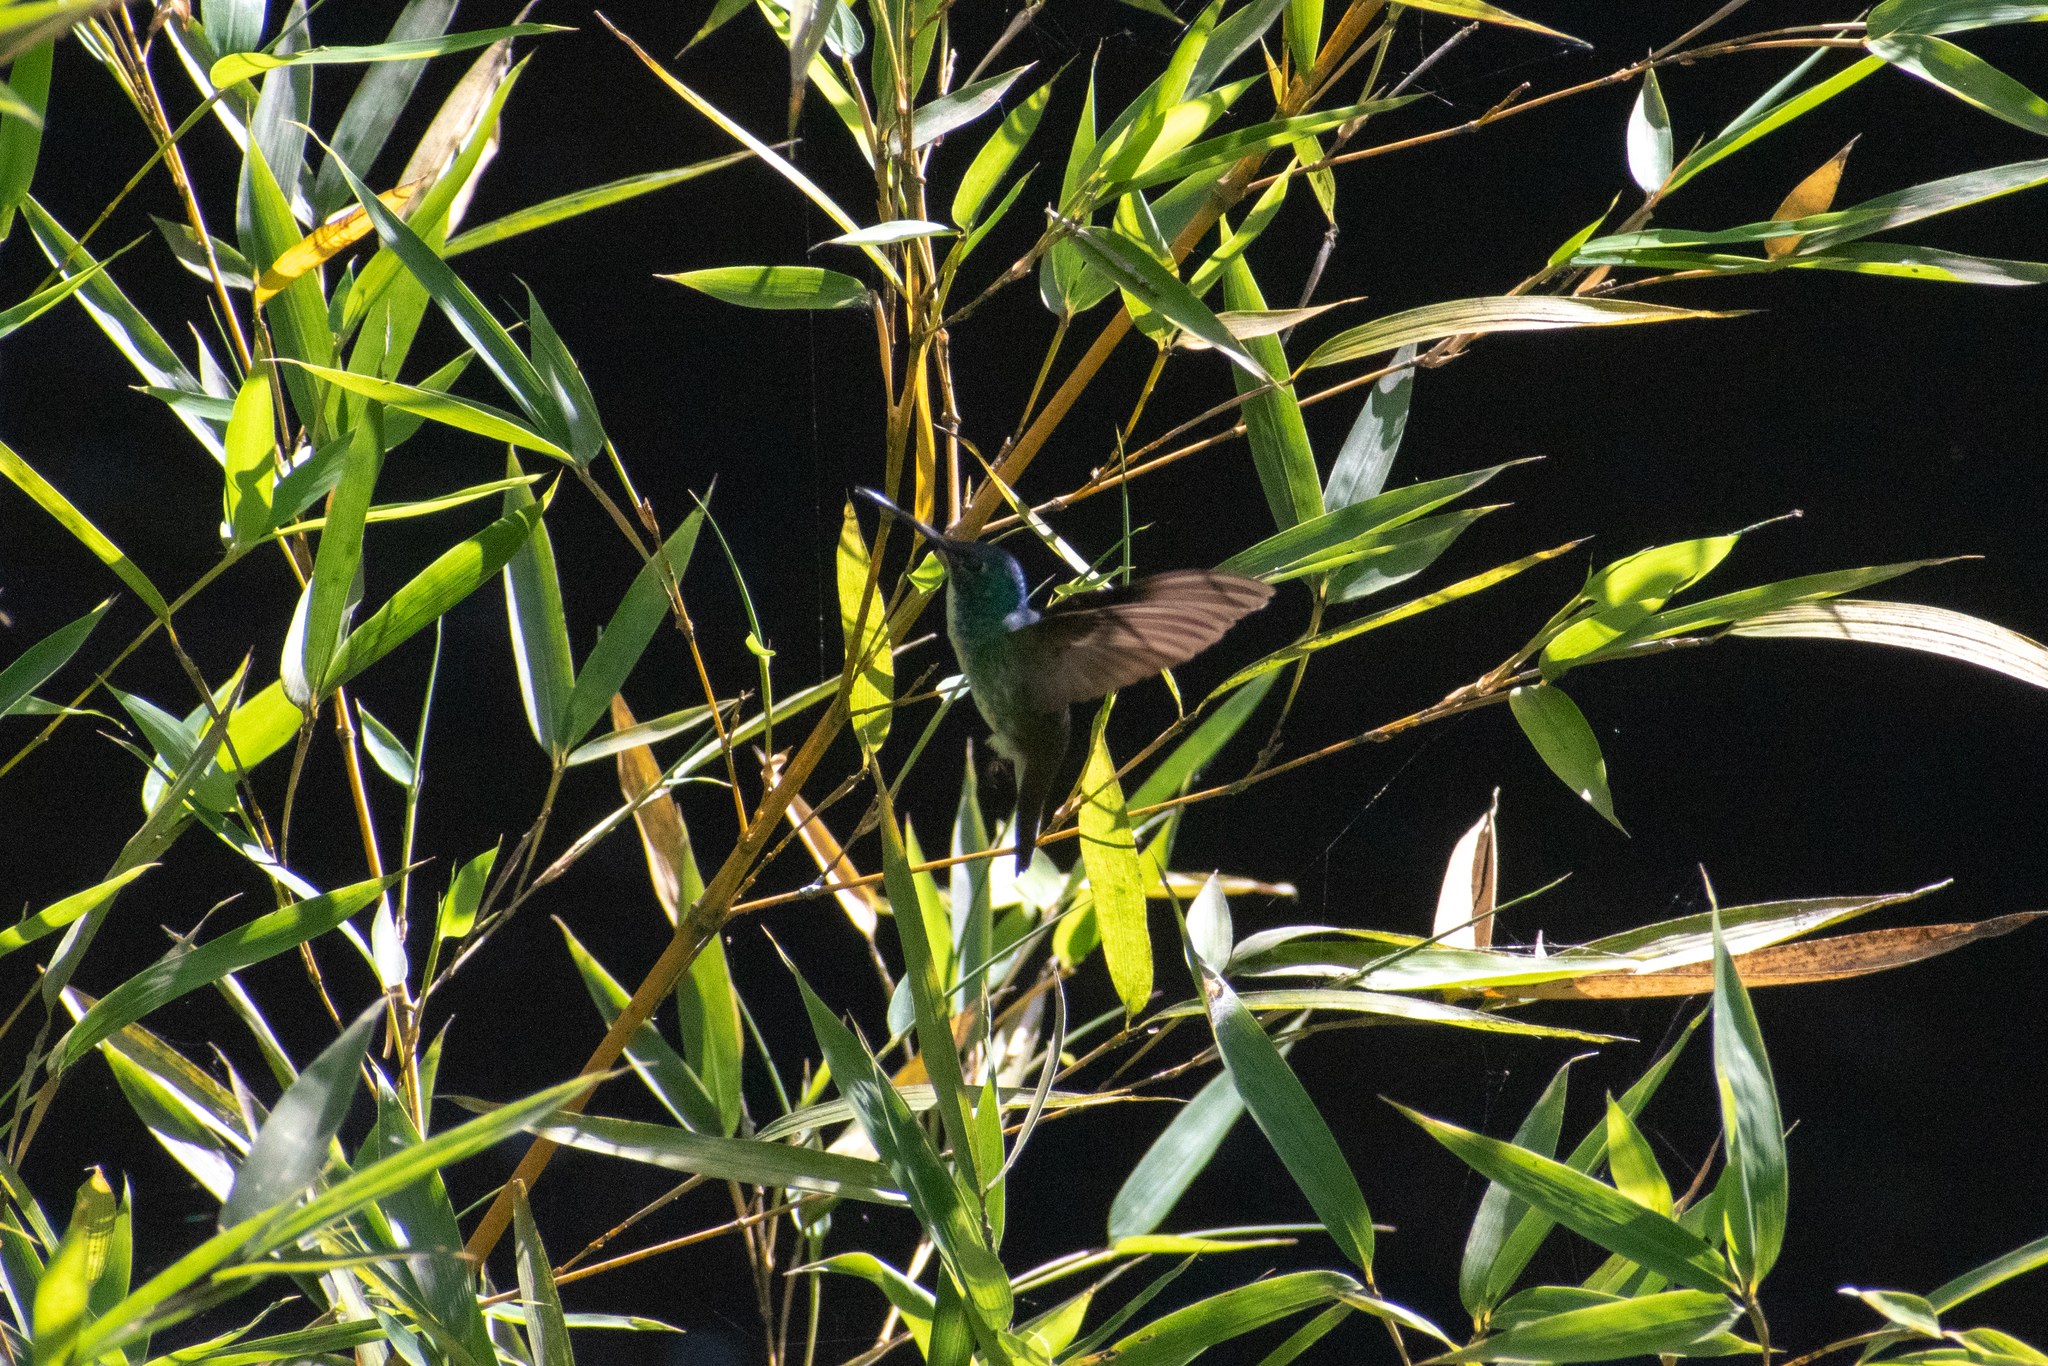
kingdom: Animalia
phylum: Chordata
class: Aves
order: Apodiformes
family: Trochilidae
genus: Uranomitra
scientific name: Uranomitra franciae
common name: Andean emerald
